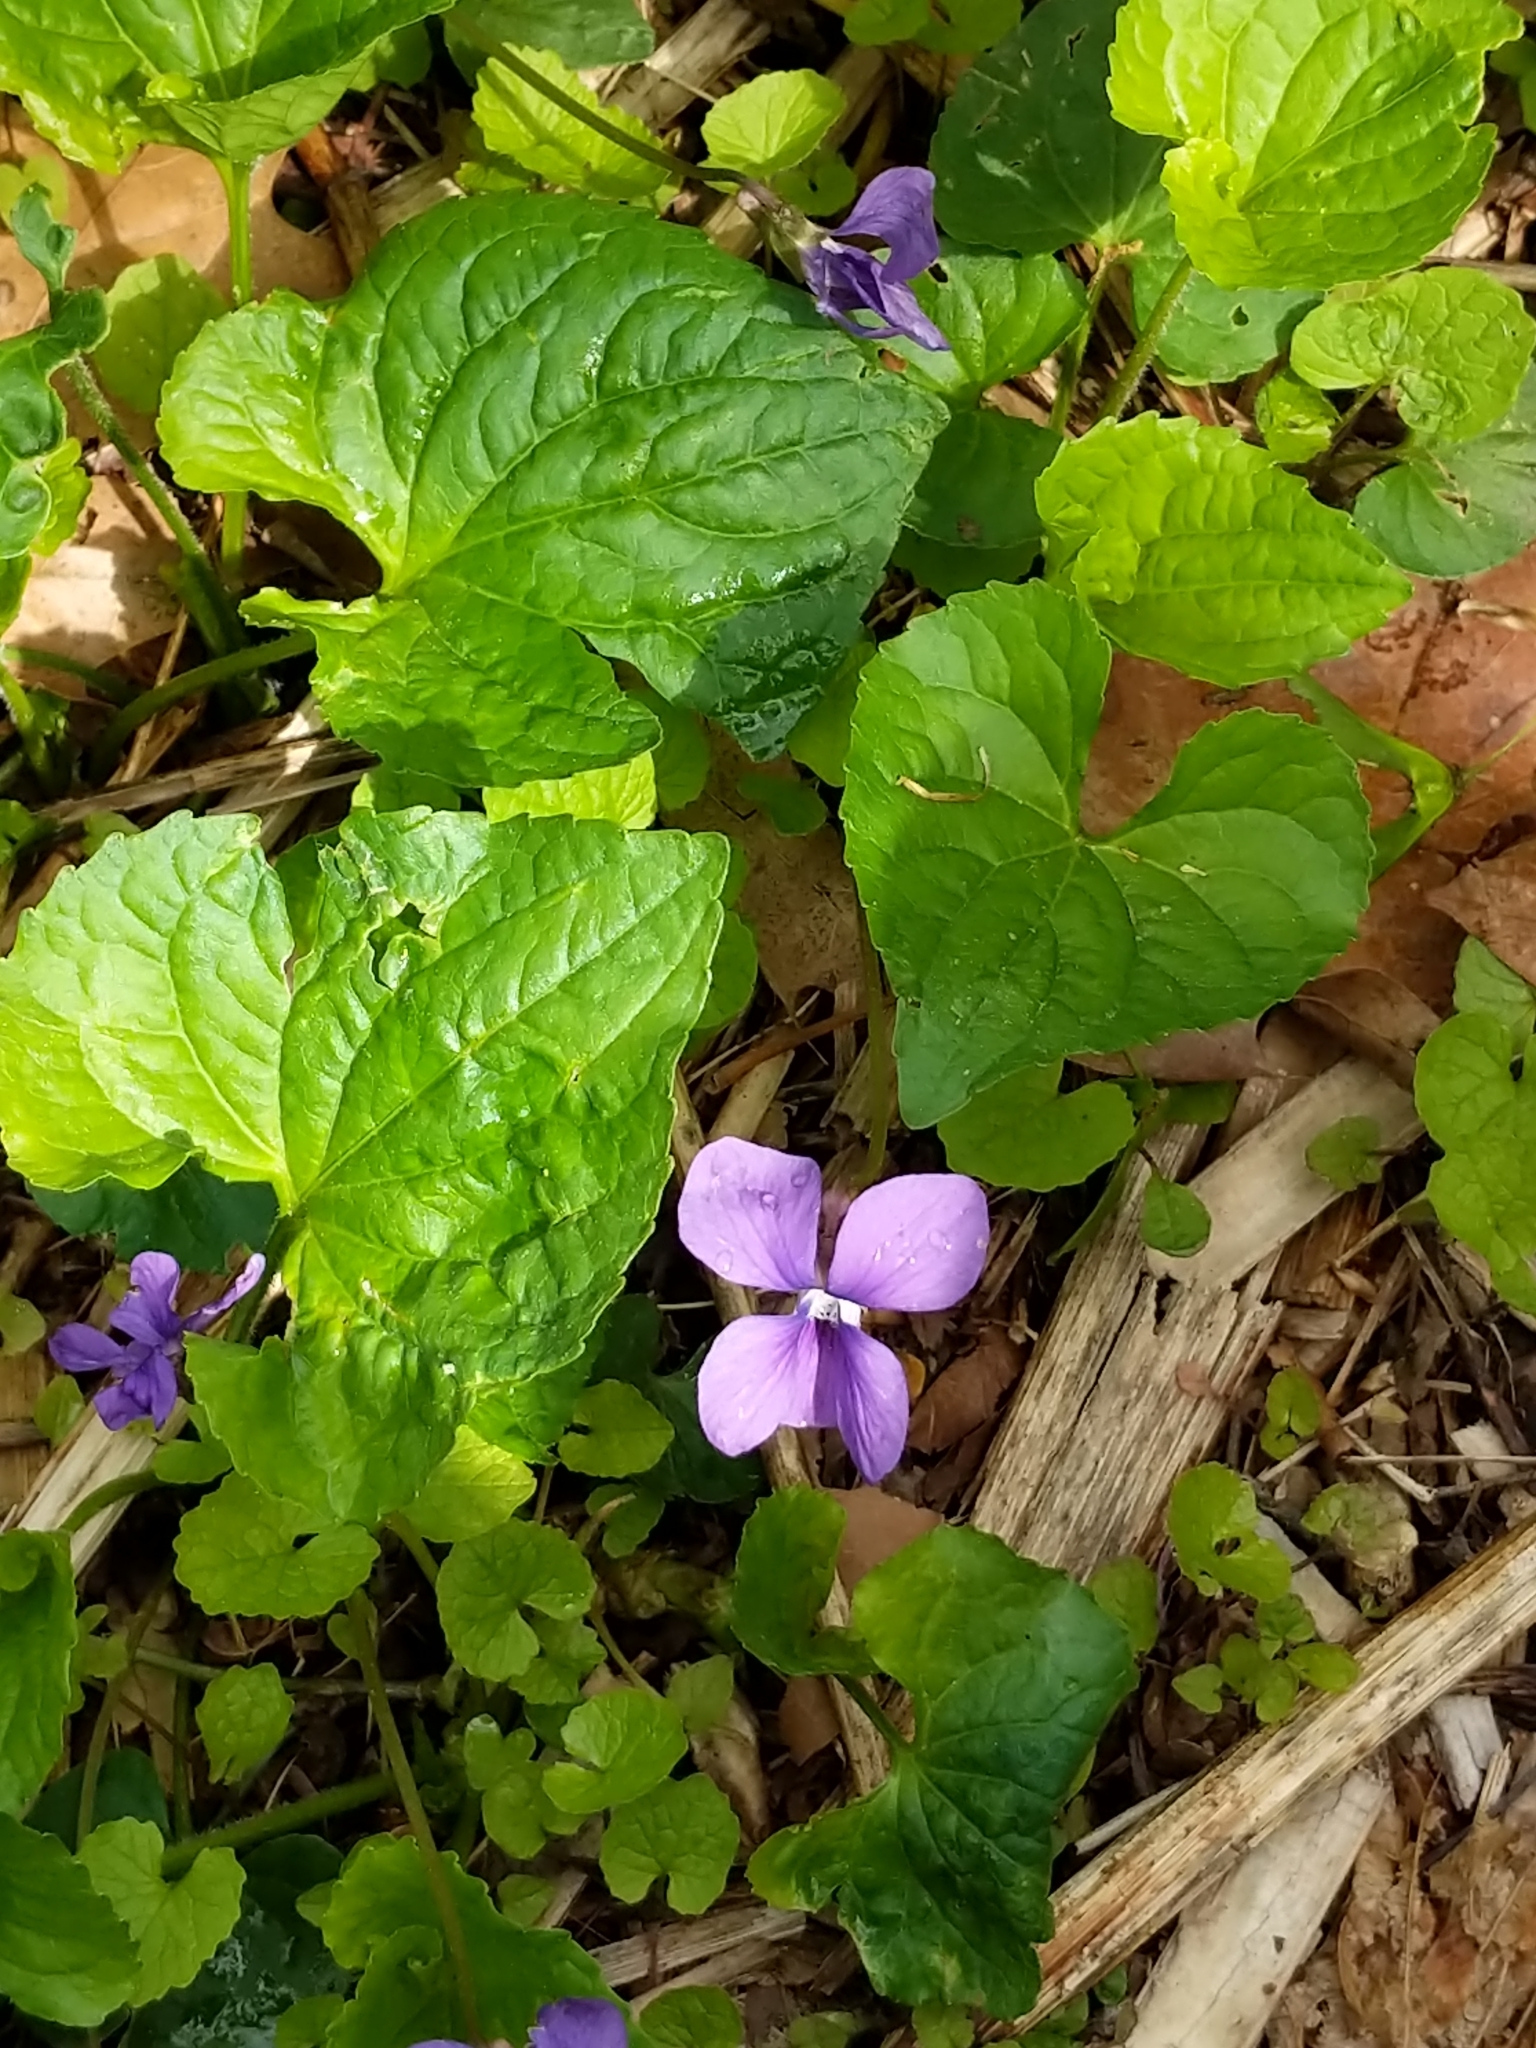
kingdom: Plantae
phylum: Tracheophyta
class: Magnoliopsida
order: Malpighiales
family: Violaceae
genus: Viola
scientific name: Viola sororia
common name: Dooryard violet
